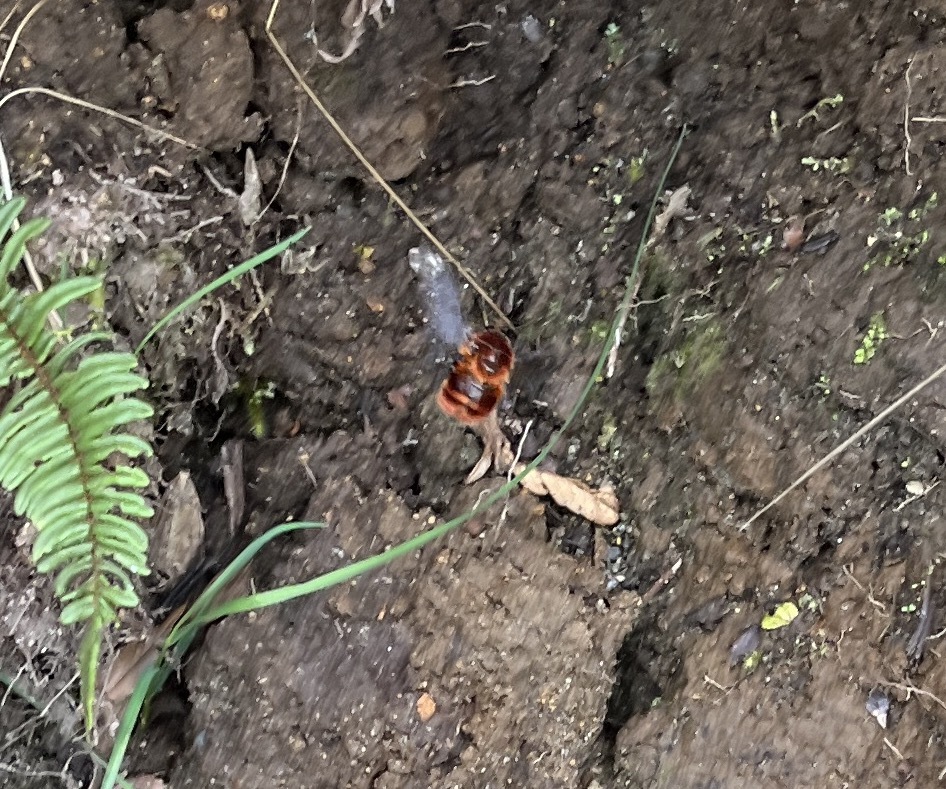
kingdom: Animalia
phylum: Arthropoda
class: Insecta
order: Hymenoptera
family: Apidae
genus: Bombus
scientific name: Bombus rubicundus
